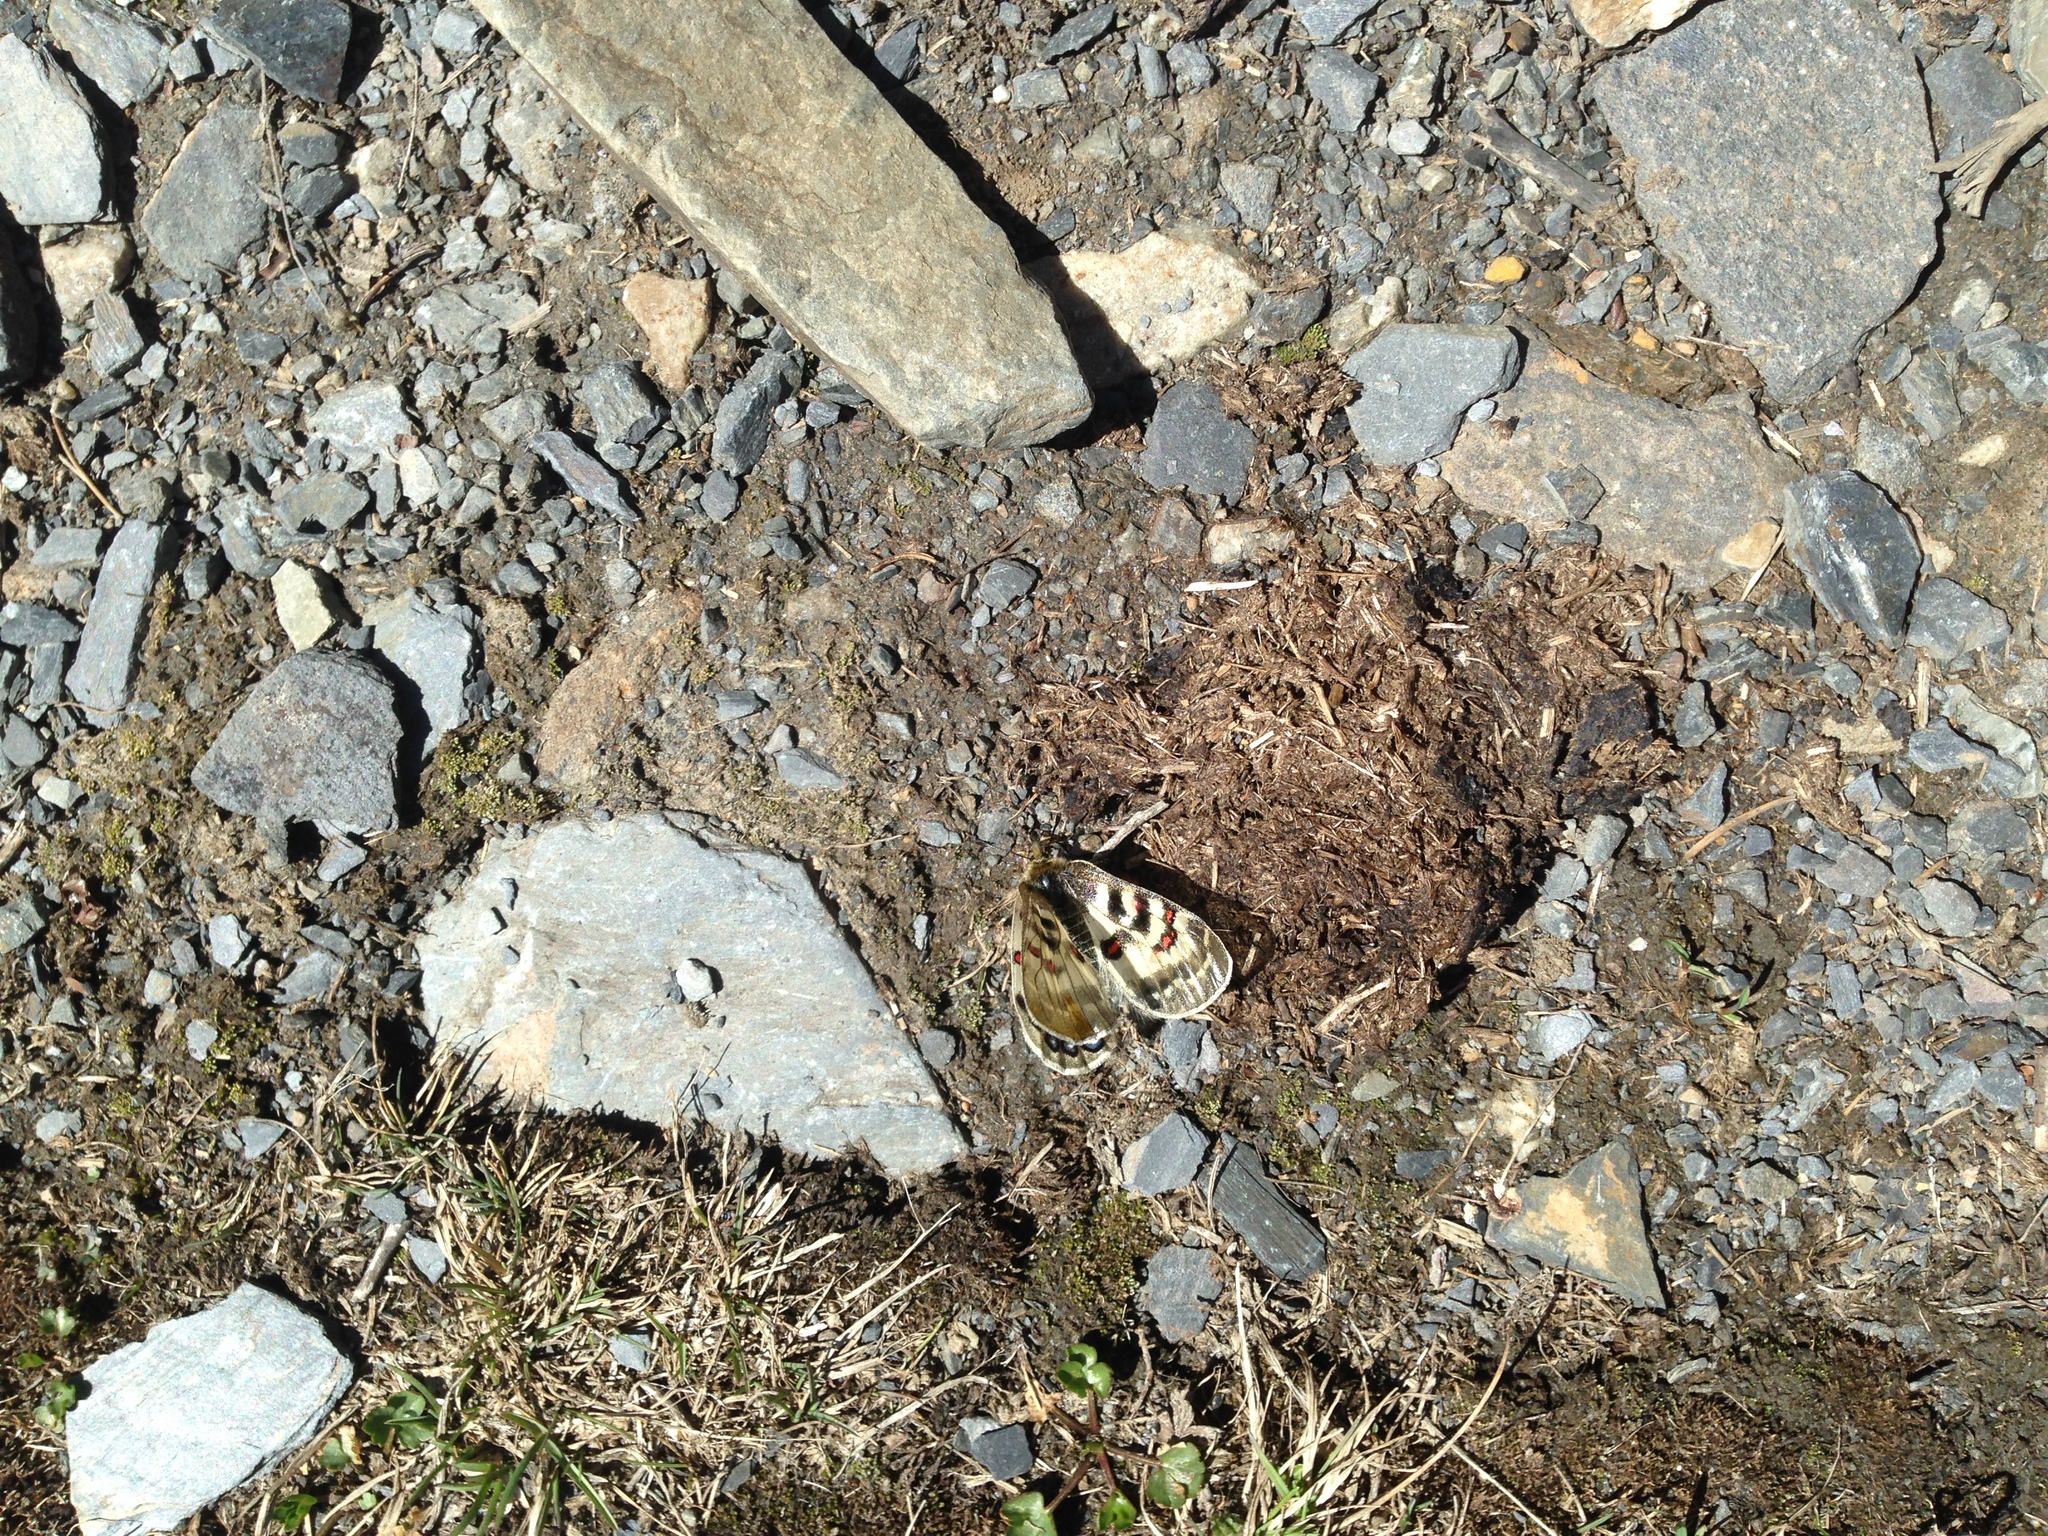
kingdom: Animalia
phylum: Arthropoda
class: Insecta
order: Lepidoptera
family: Papilionidae
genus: Parnassius
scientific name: Parnassius hardwickii
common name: Common blue apollo
